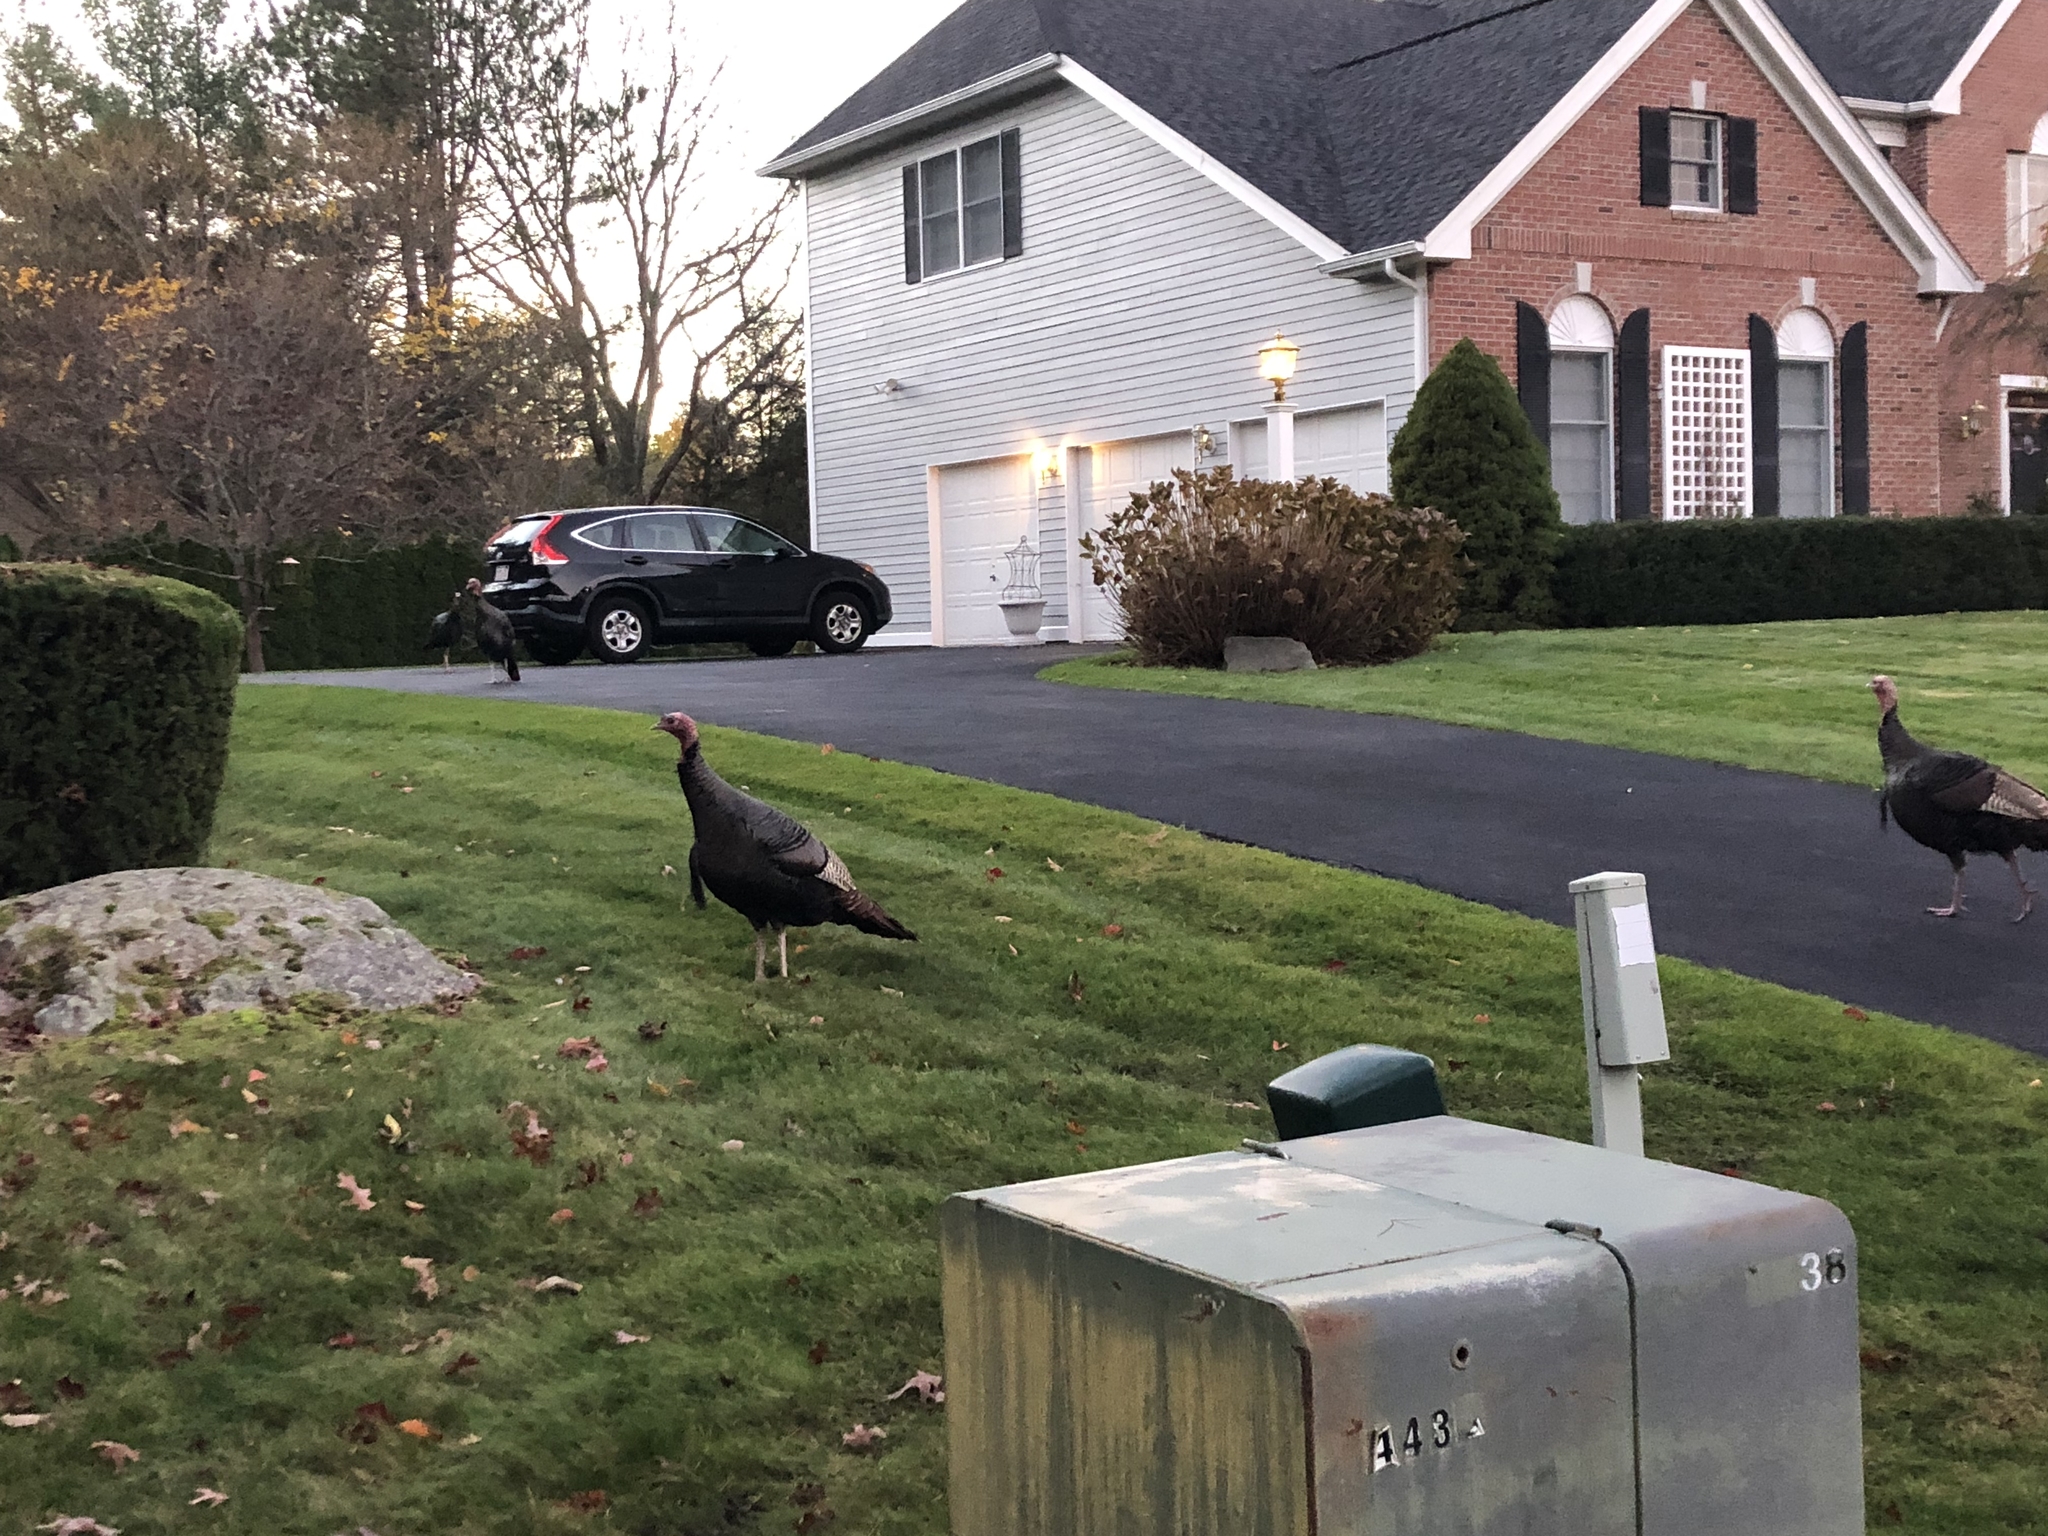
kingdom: Animalia
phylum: Chordata
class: Aves
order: Galliformes
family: Phasianidae
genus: Meleagris
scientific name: Meleagris gallopavo
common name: Wild turkey
